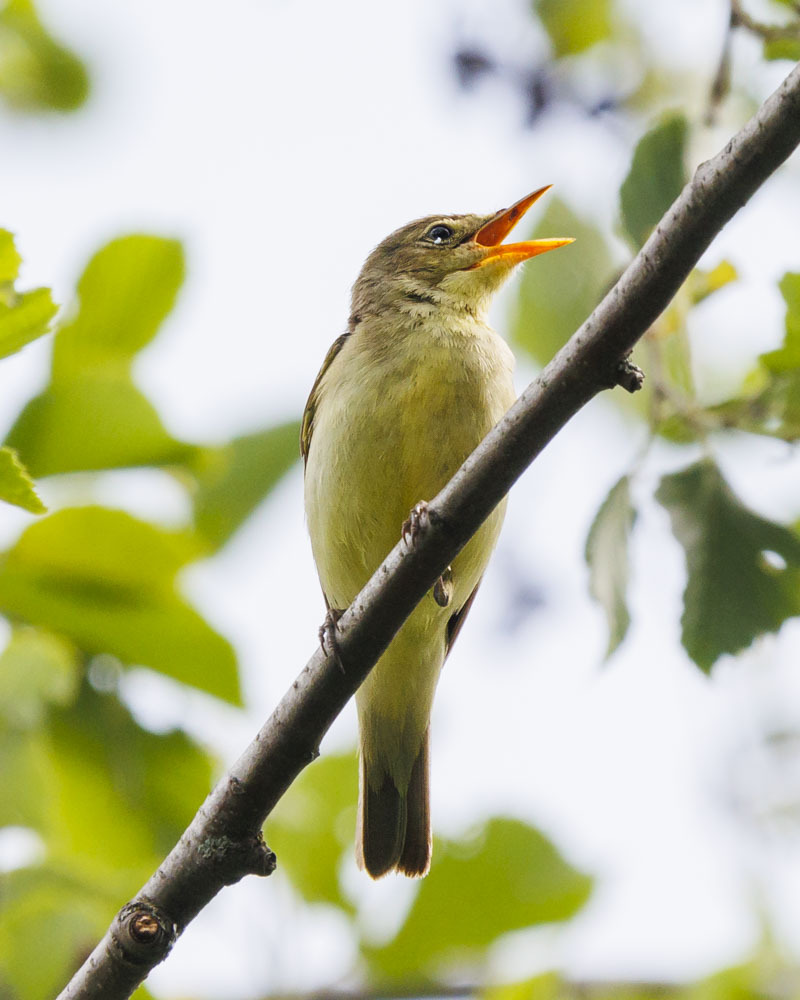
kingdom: Animalia
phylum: Chordata
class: Aves
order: Passeriformes
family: Acrocephalidae
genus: Hippolais
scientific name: Hippolais icterina
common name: Icterine warbler
